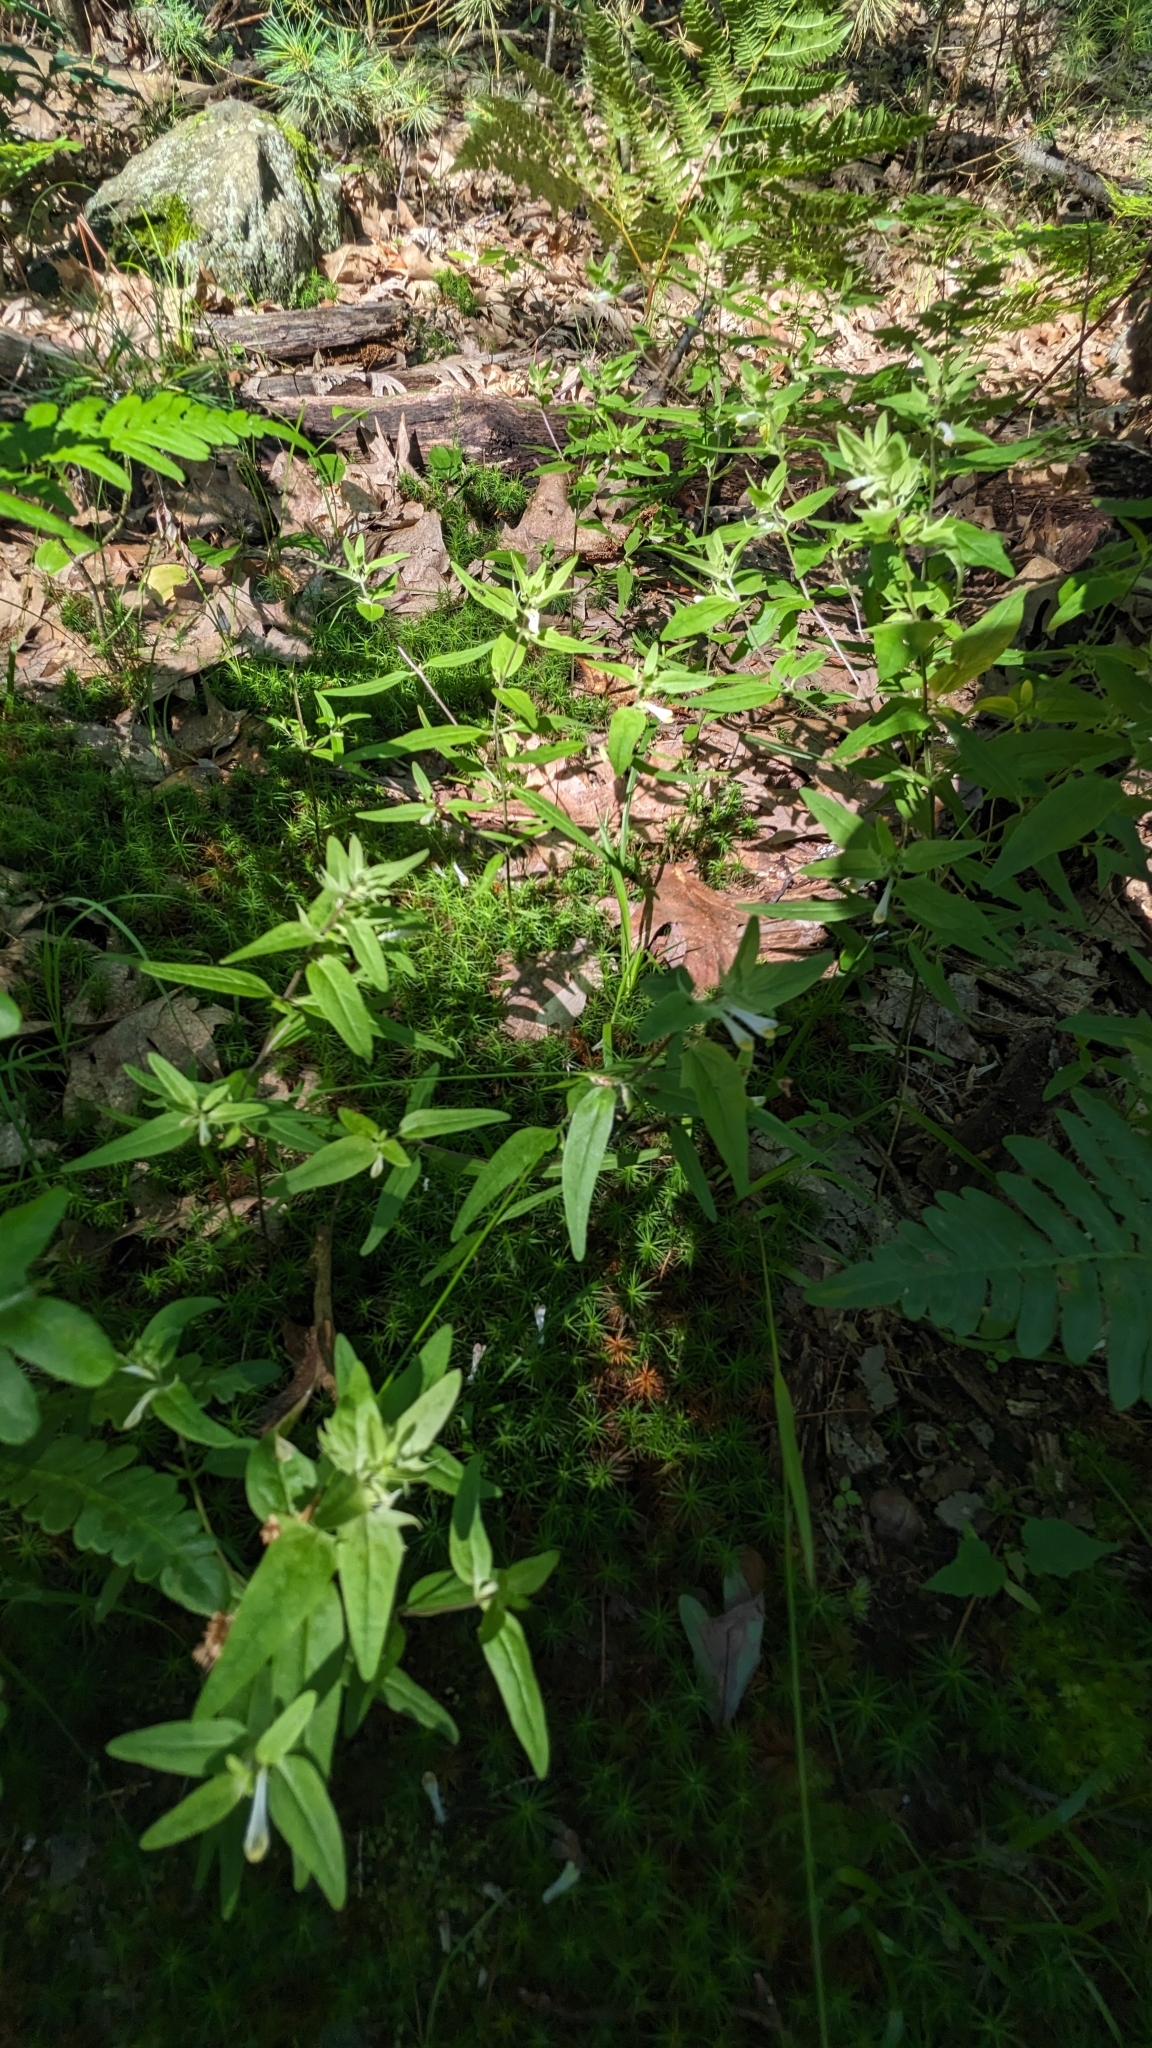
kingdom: Plantae
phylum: Tracheophyta
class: Magnoliopsida
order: Lamiales
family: Orobanchaceae
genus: Melampyrum
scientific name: Melampyrum lineare
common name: American cow-wheat
